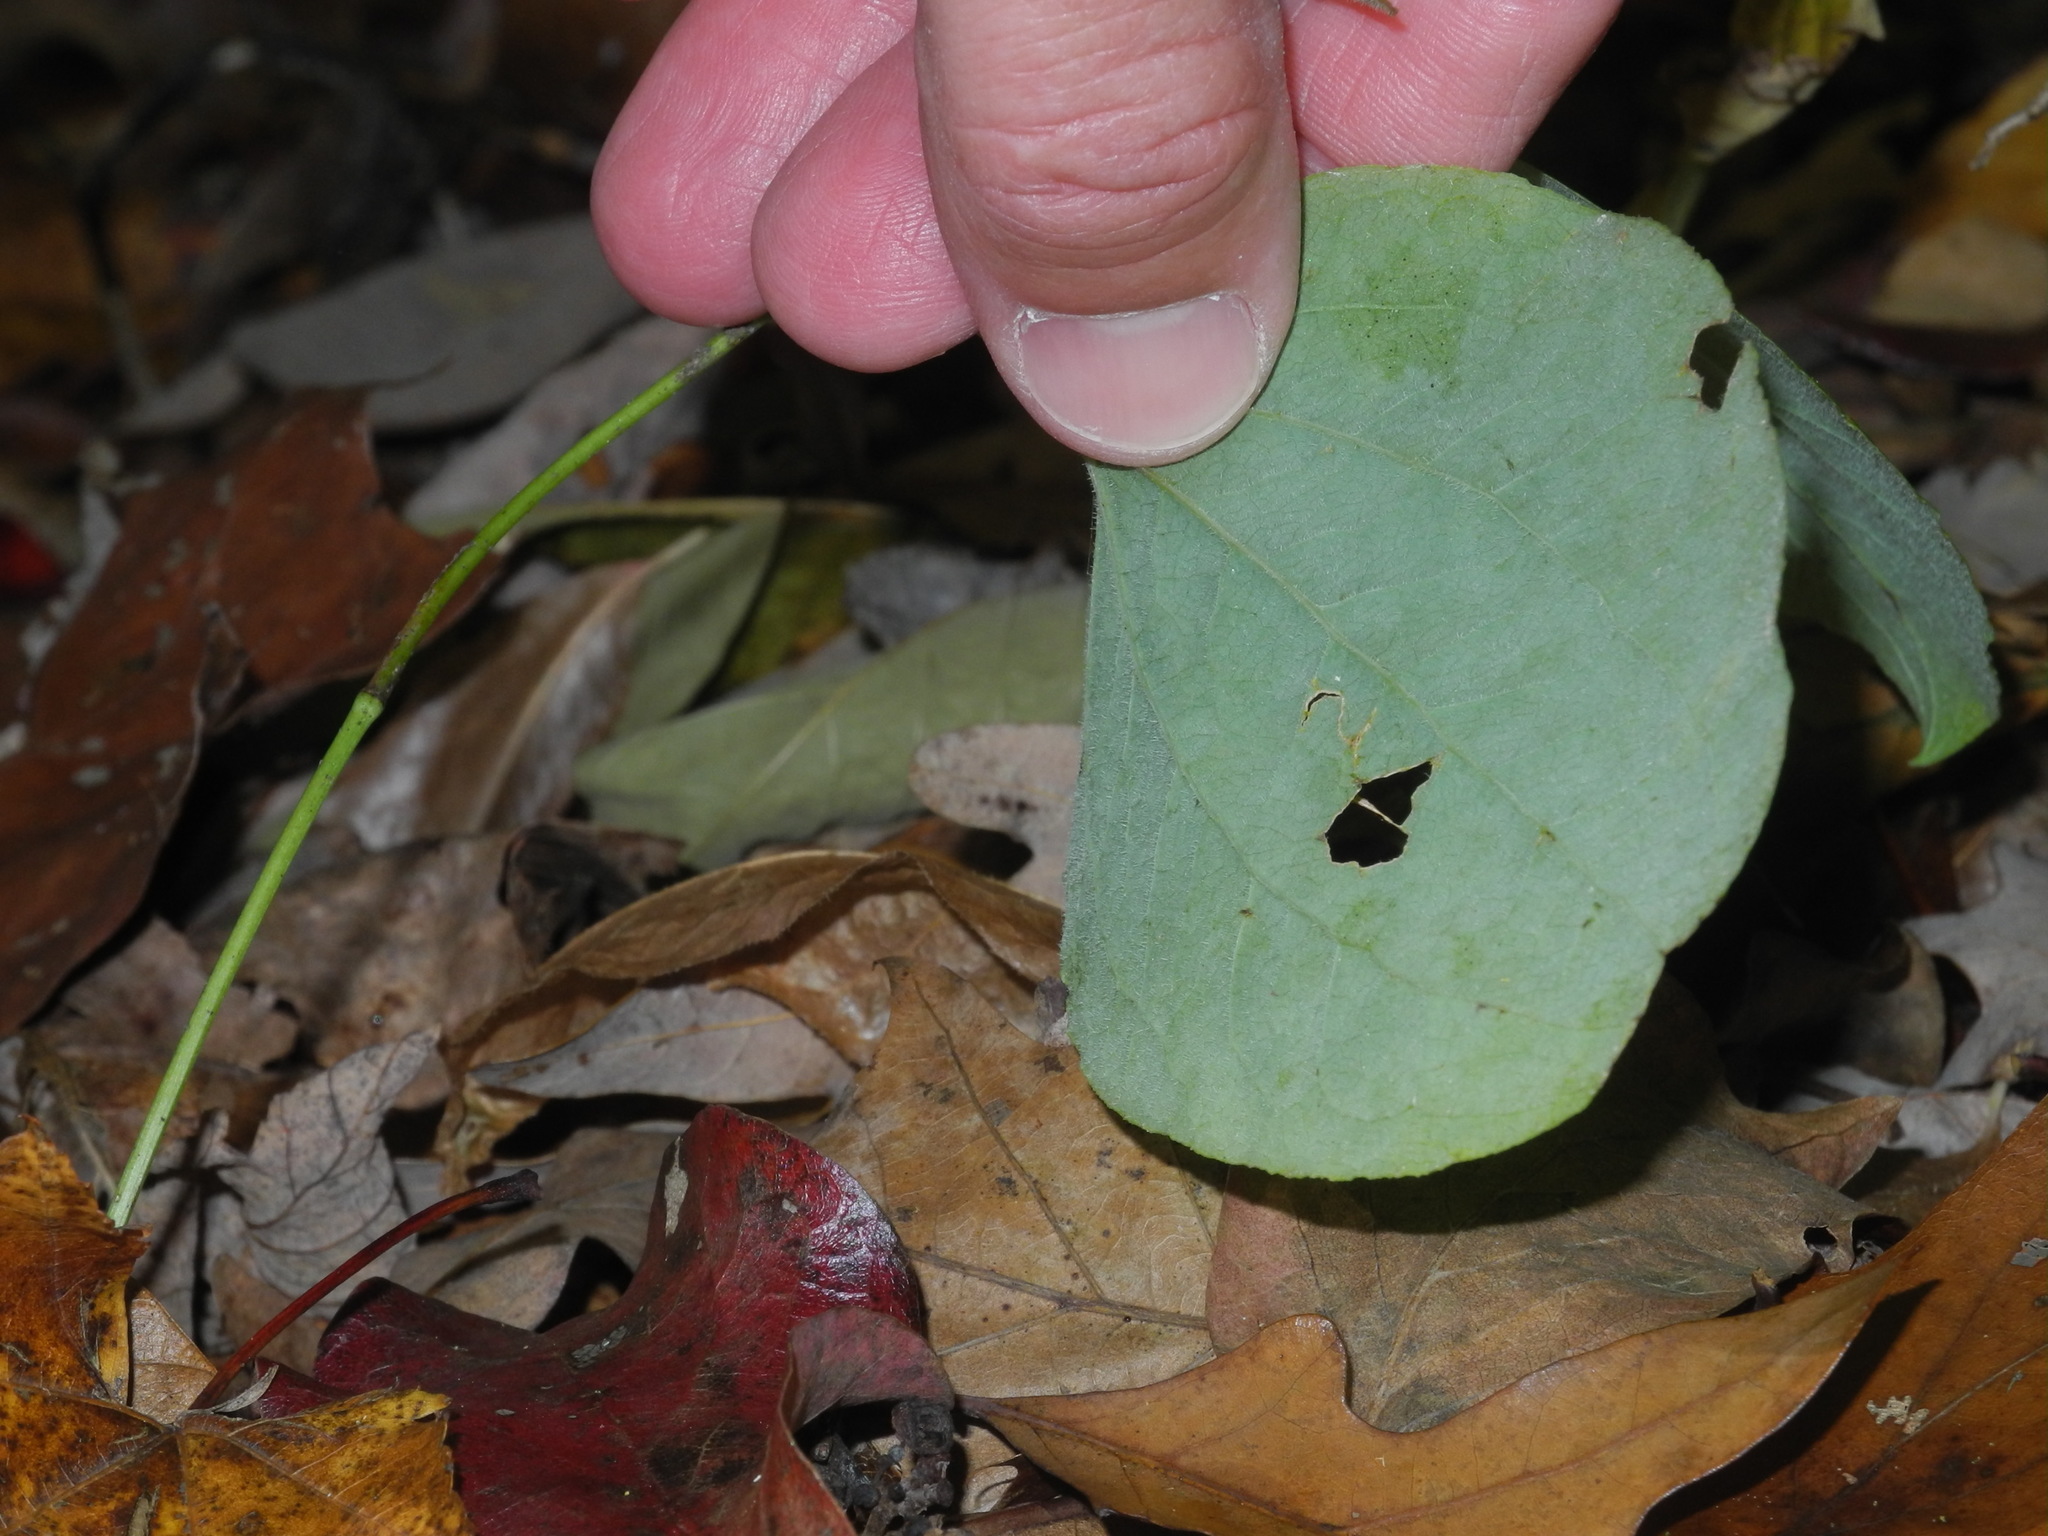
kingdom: Plantae
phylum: Tracheophyta
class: Liliopsida
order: Liliales
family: Smilacaceae
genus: Smilax
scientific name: Smilax hugeri
